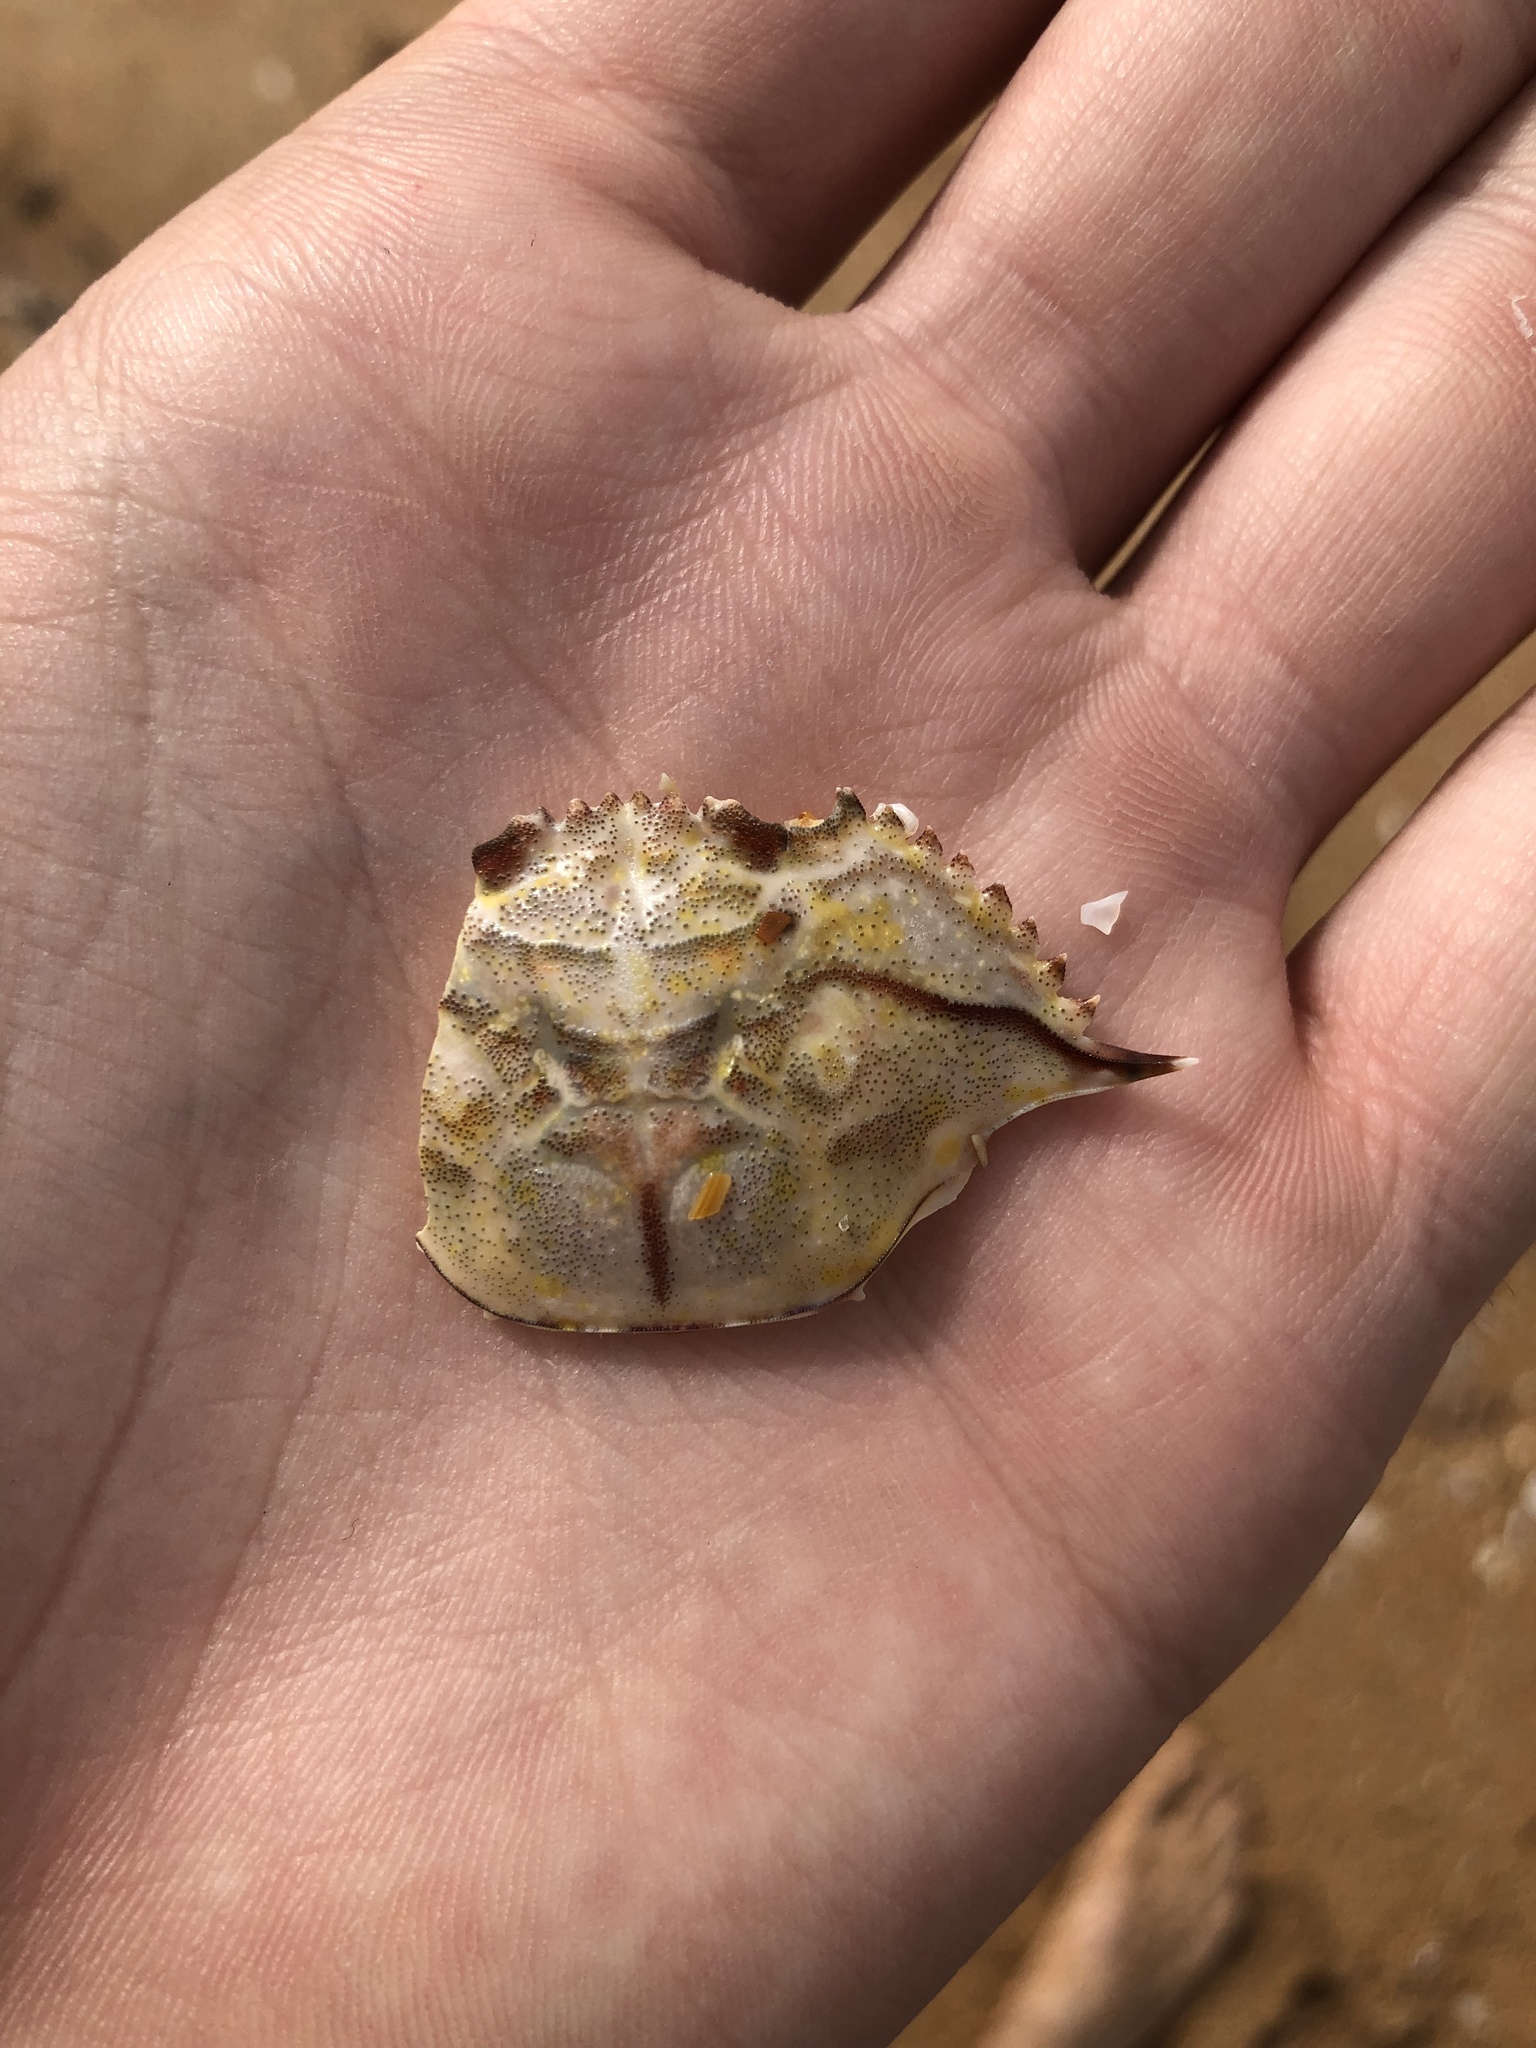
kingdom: Animalia
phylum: Arthropoda
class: Malacostraca
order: Decapoda
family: Portunidae
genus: Achelous
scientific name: Achelous gibbesii
